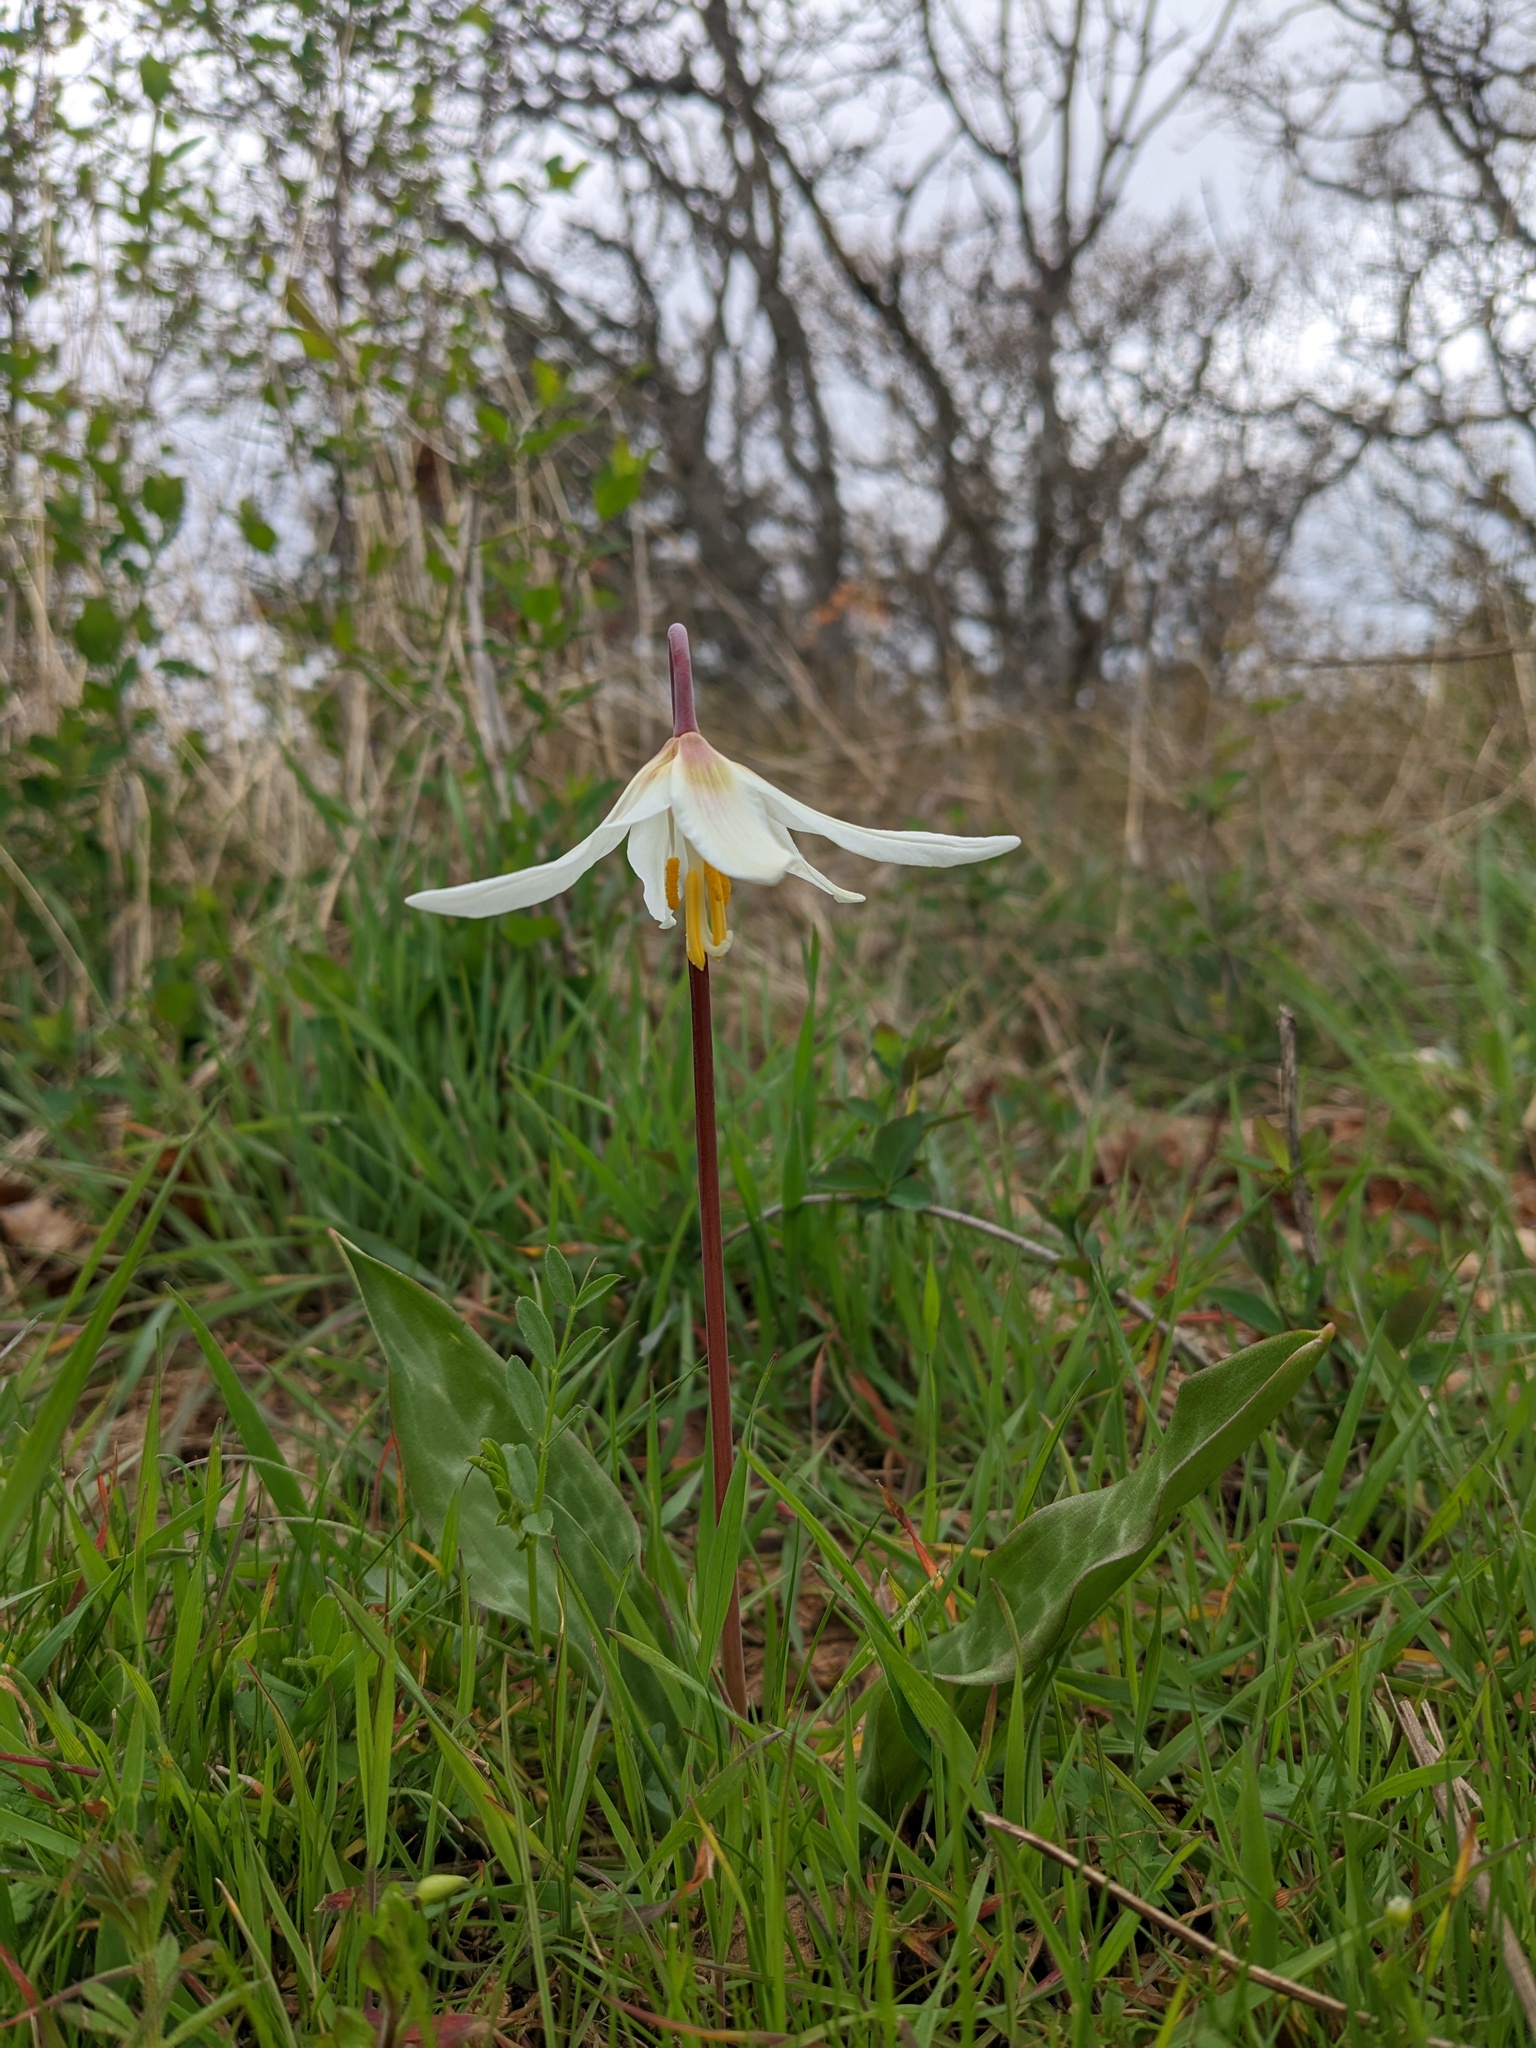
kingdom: Plantae
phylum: Tracheophyta
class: Liliopsida
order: Liliales
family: Liliaceae
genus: Erythronium
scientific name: Erythronium oregonum
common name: Giant adder's-tongue
